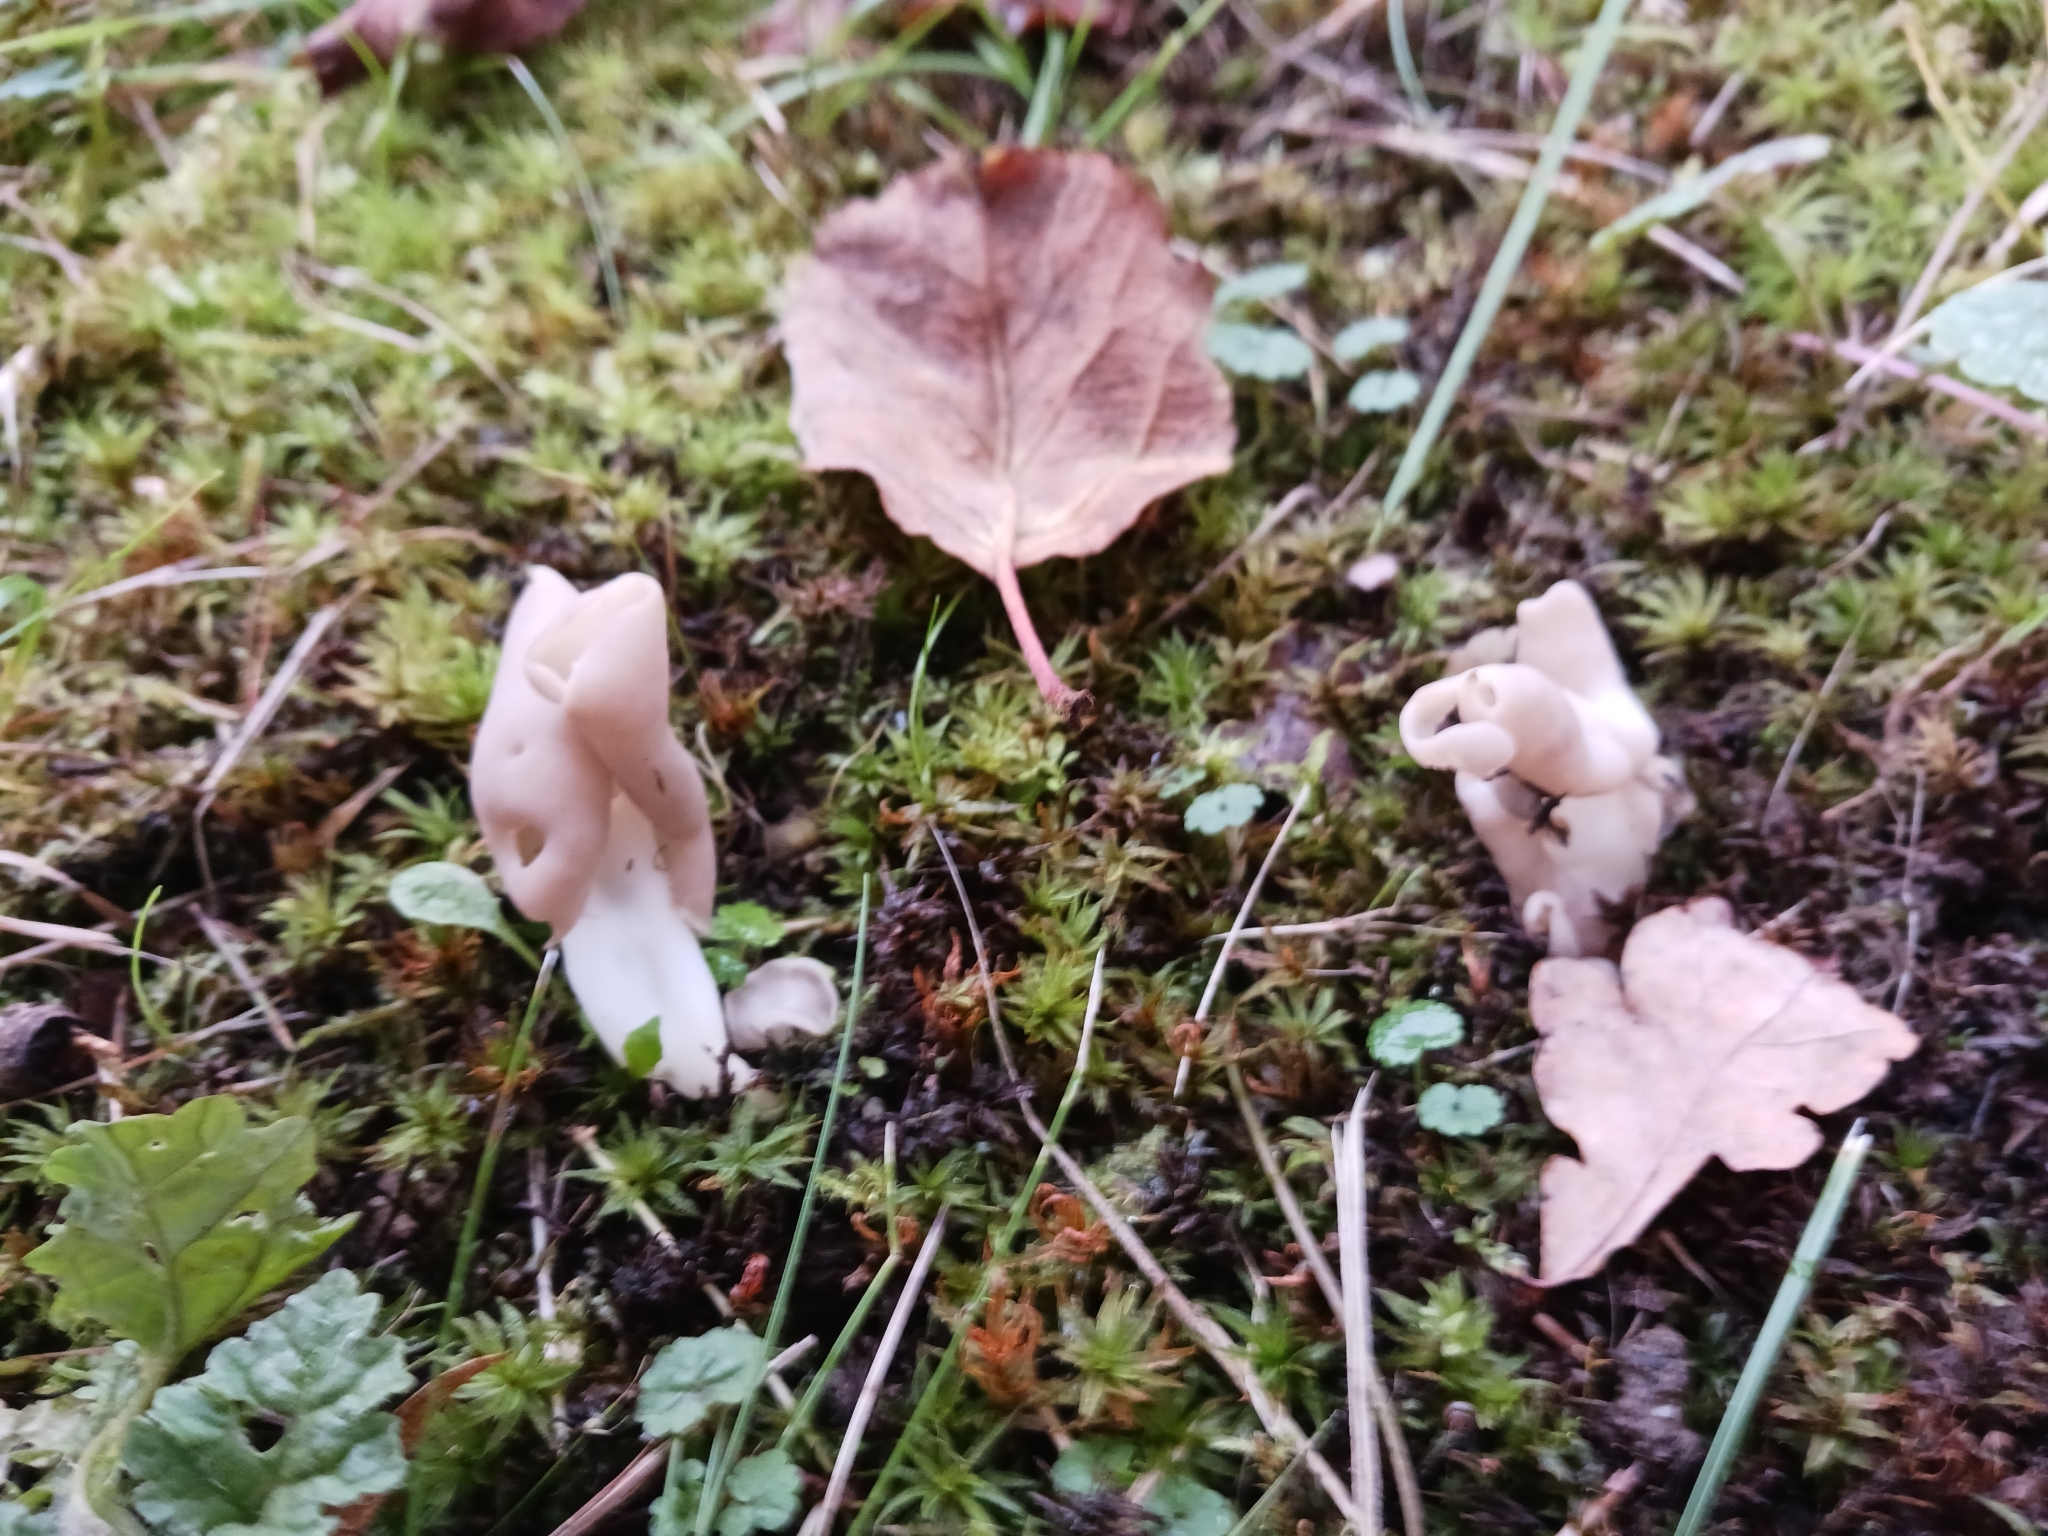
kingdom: Fungi
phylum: Ascomycota
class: Pezizomycetes
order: Pezizales
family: Helvellaceae
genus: Helvella
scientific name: Helvella crispa
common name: White saddle
